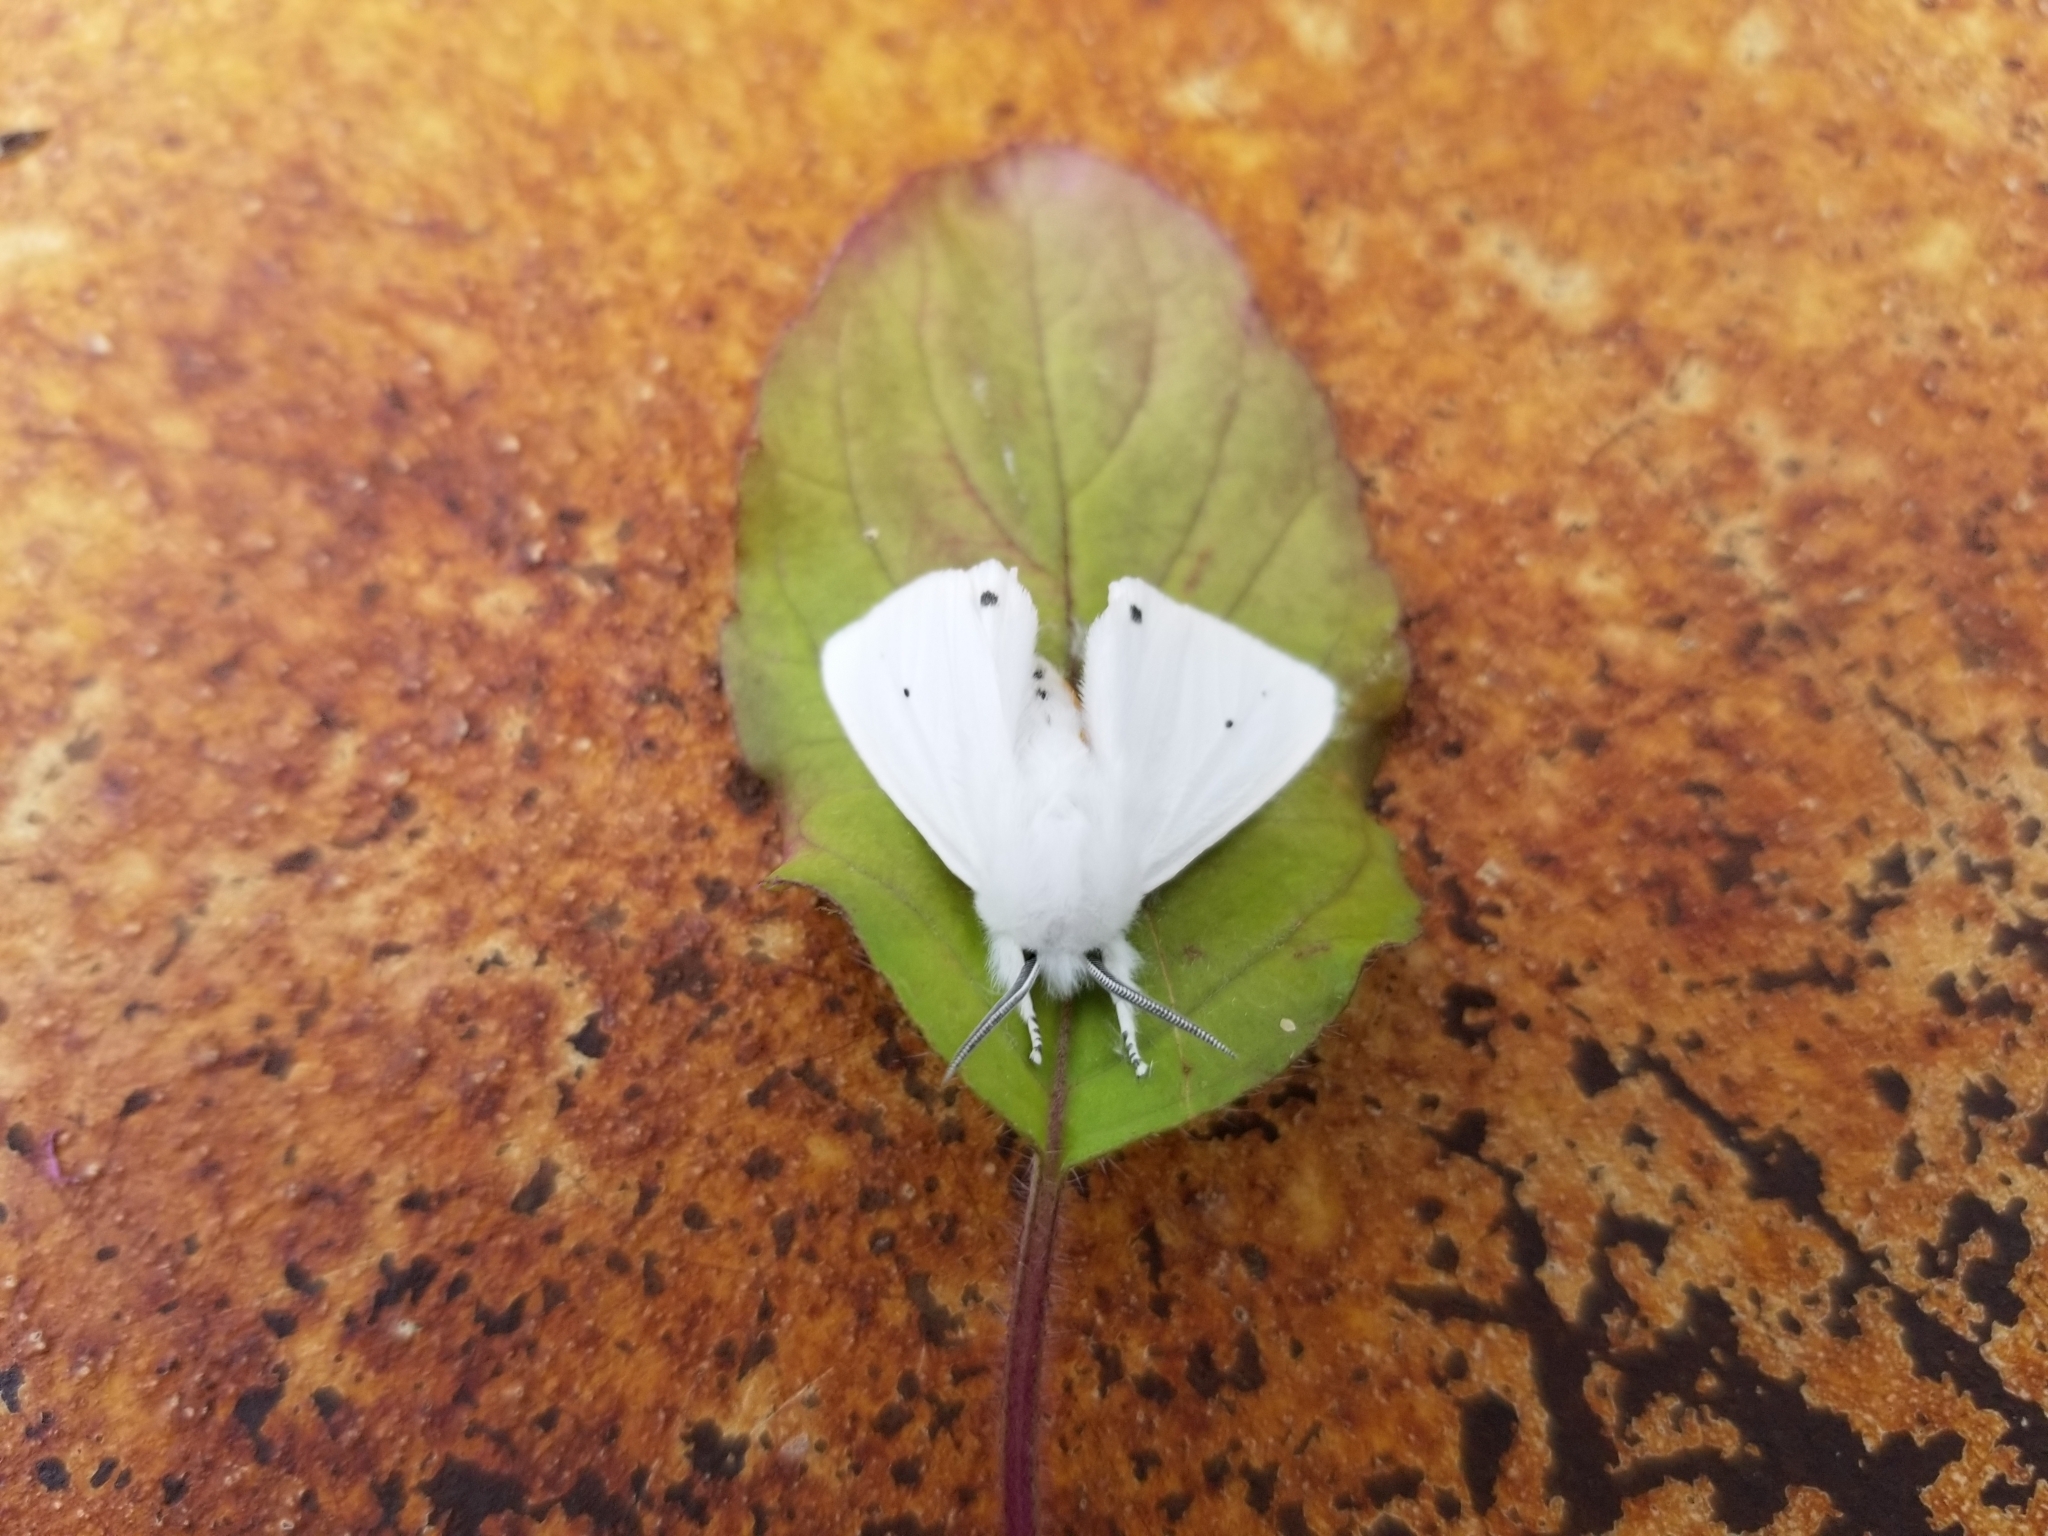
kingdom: Animalia
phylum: Arthropoda
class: Insecta
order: Lepidoptera
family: Erebidae
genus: Spilosoma
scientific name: Spilosoma virginica
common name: Virginia tiger moth
